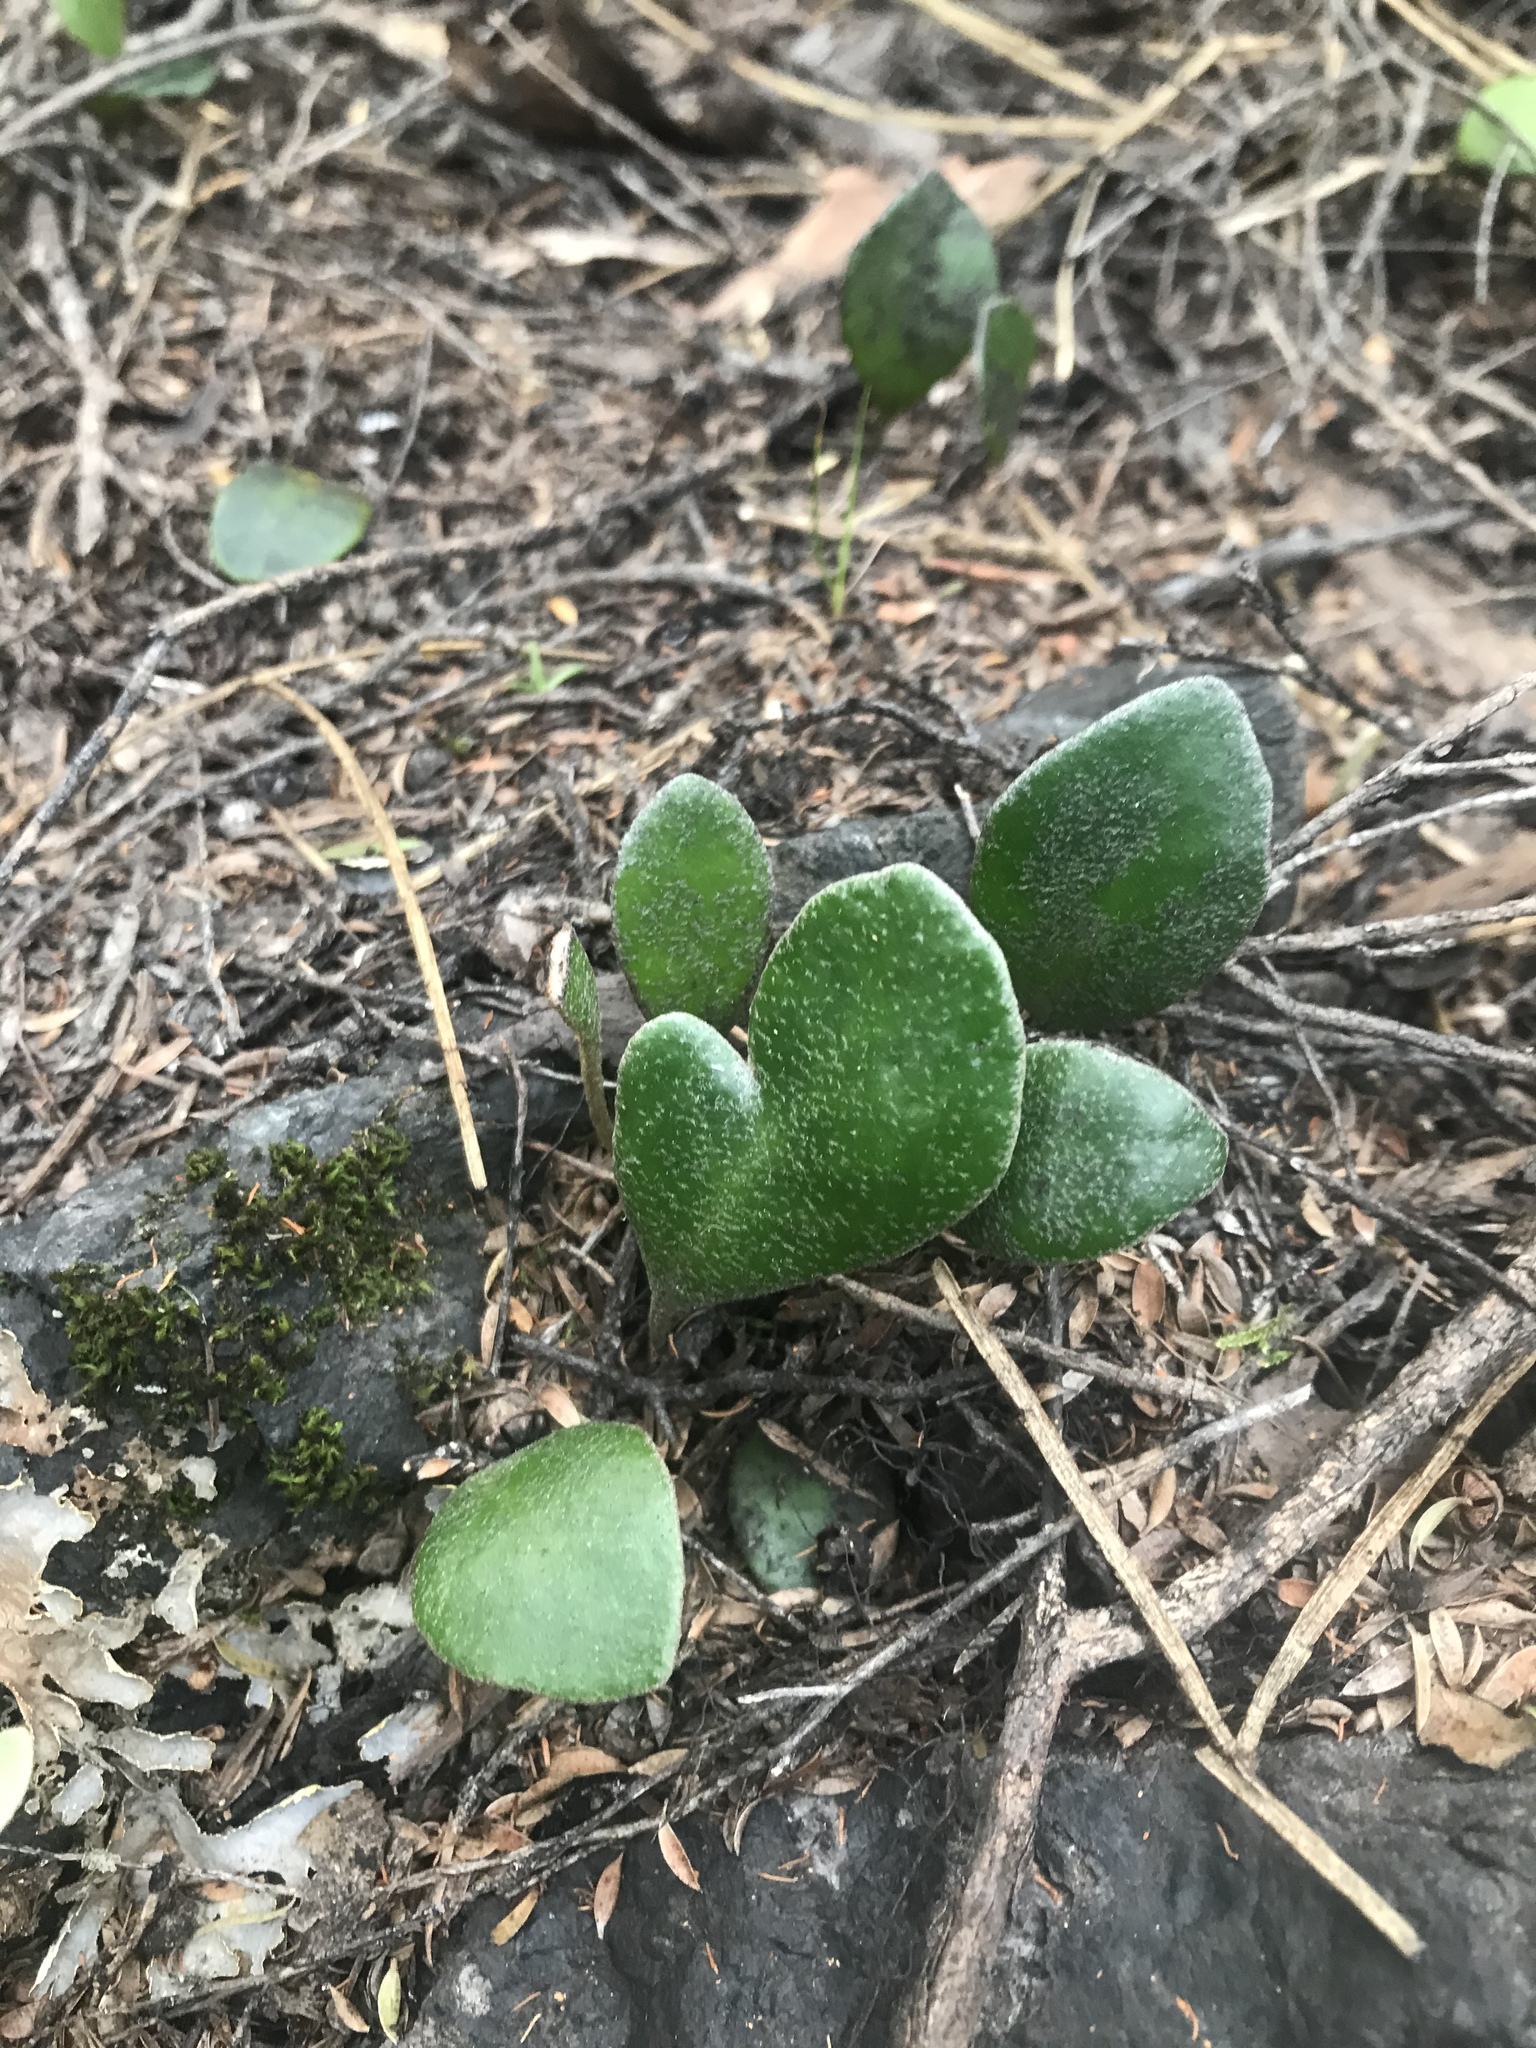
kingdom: Plantae
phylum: Tracheophyta
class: Polypodiopsida
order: Polypodiales
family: Polypodiaceae
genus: Pyrrosia
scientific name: Pyrrosia eleagnifolia
